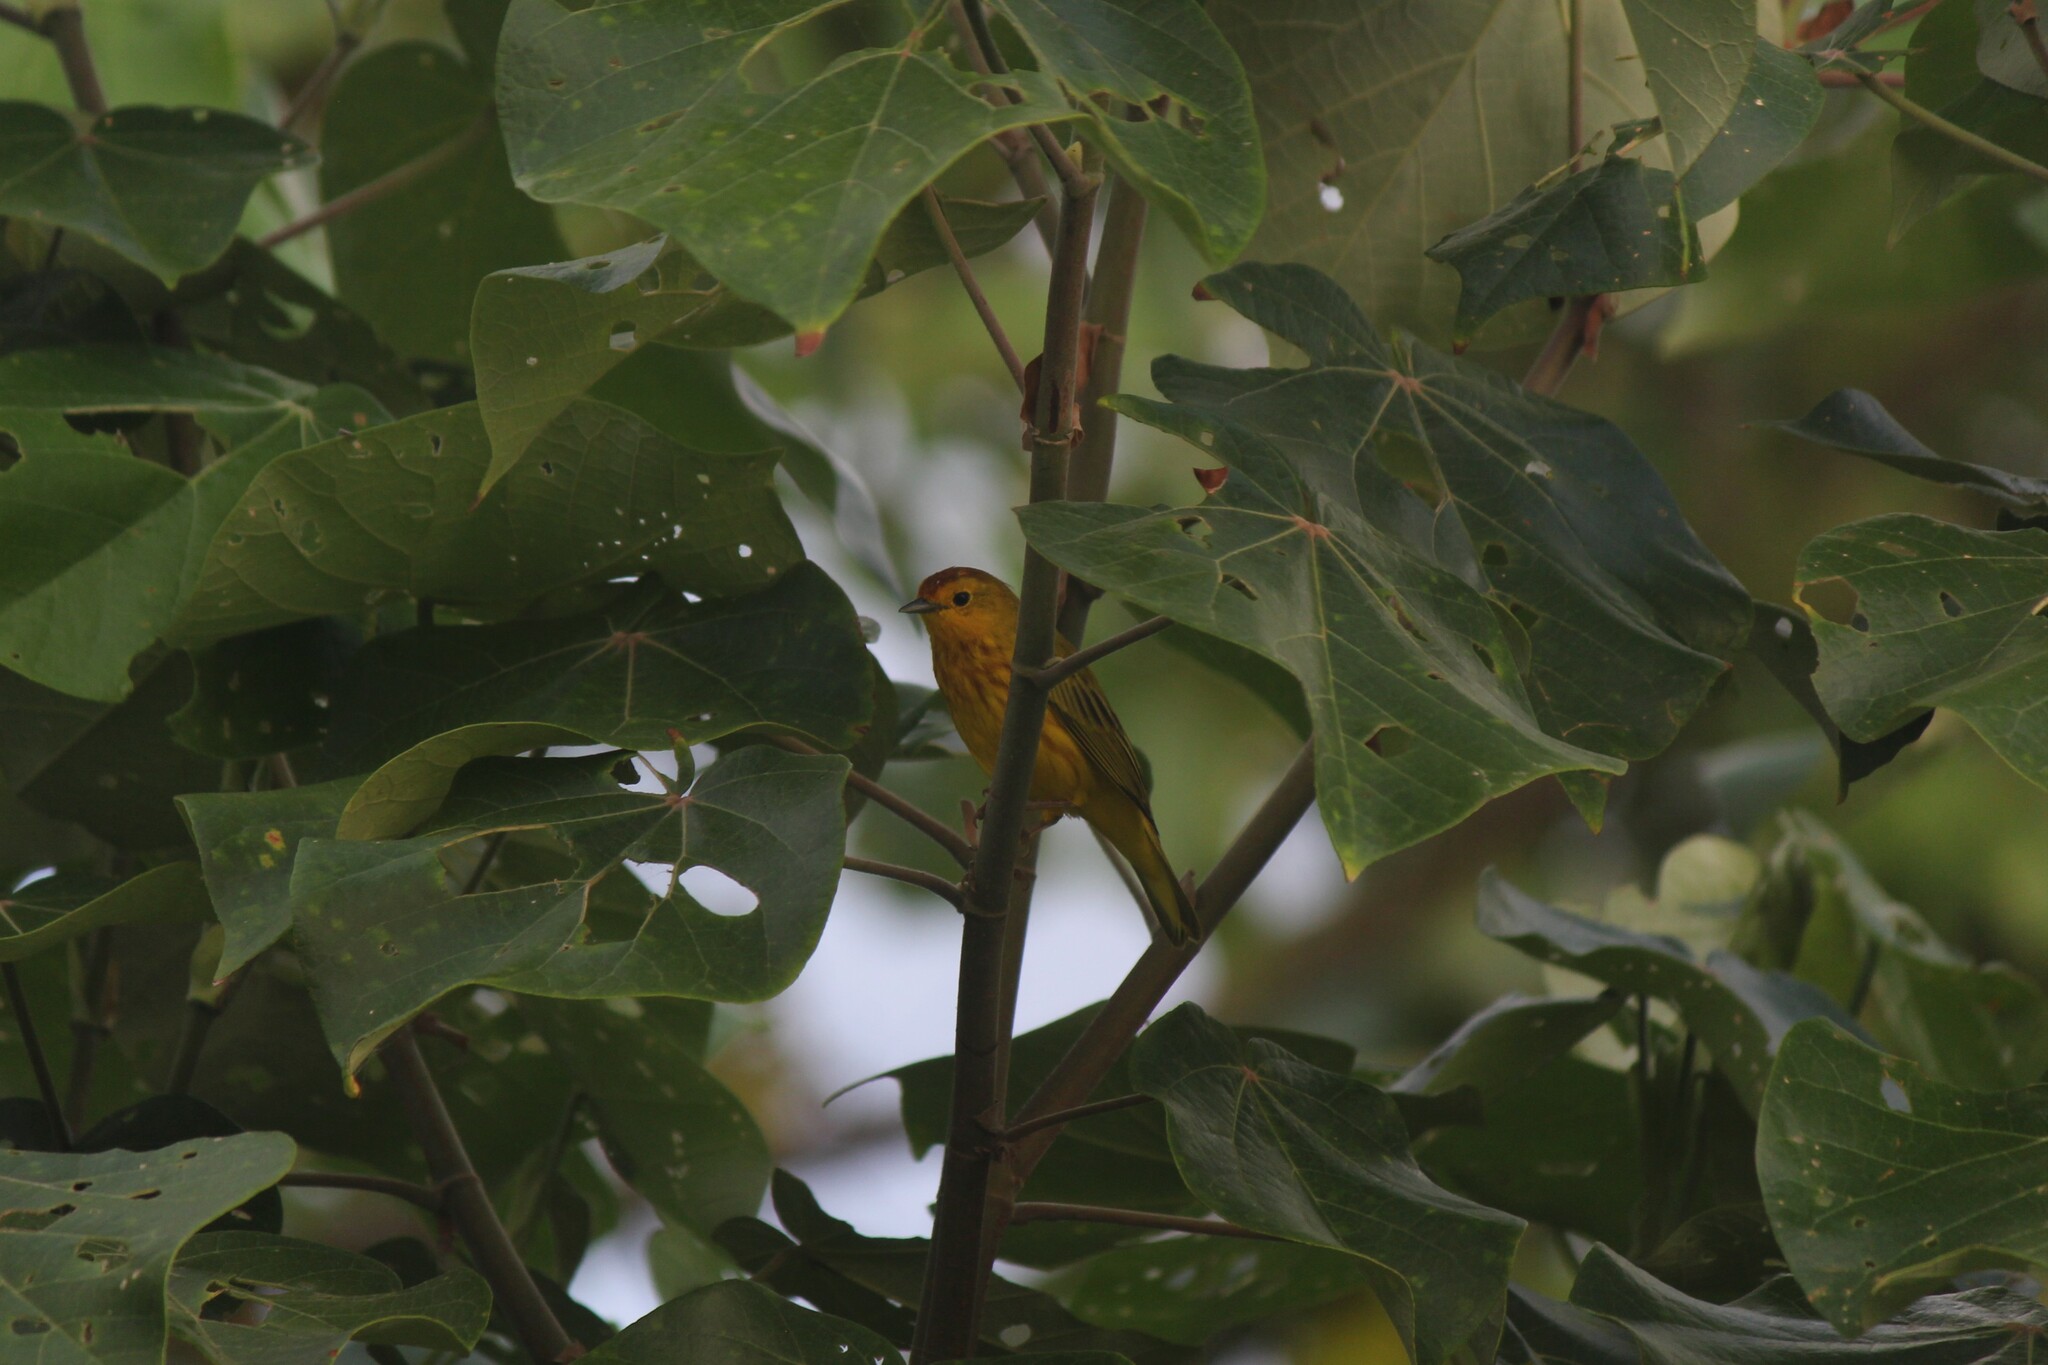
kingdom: Animalia
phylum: Chordata
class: Aves
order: Passeriformes
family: Parulidae
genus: Setophaga
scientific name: Setophaga petechia
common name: Yellow warbler
